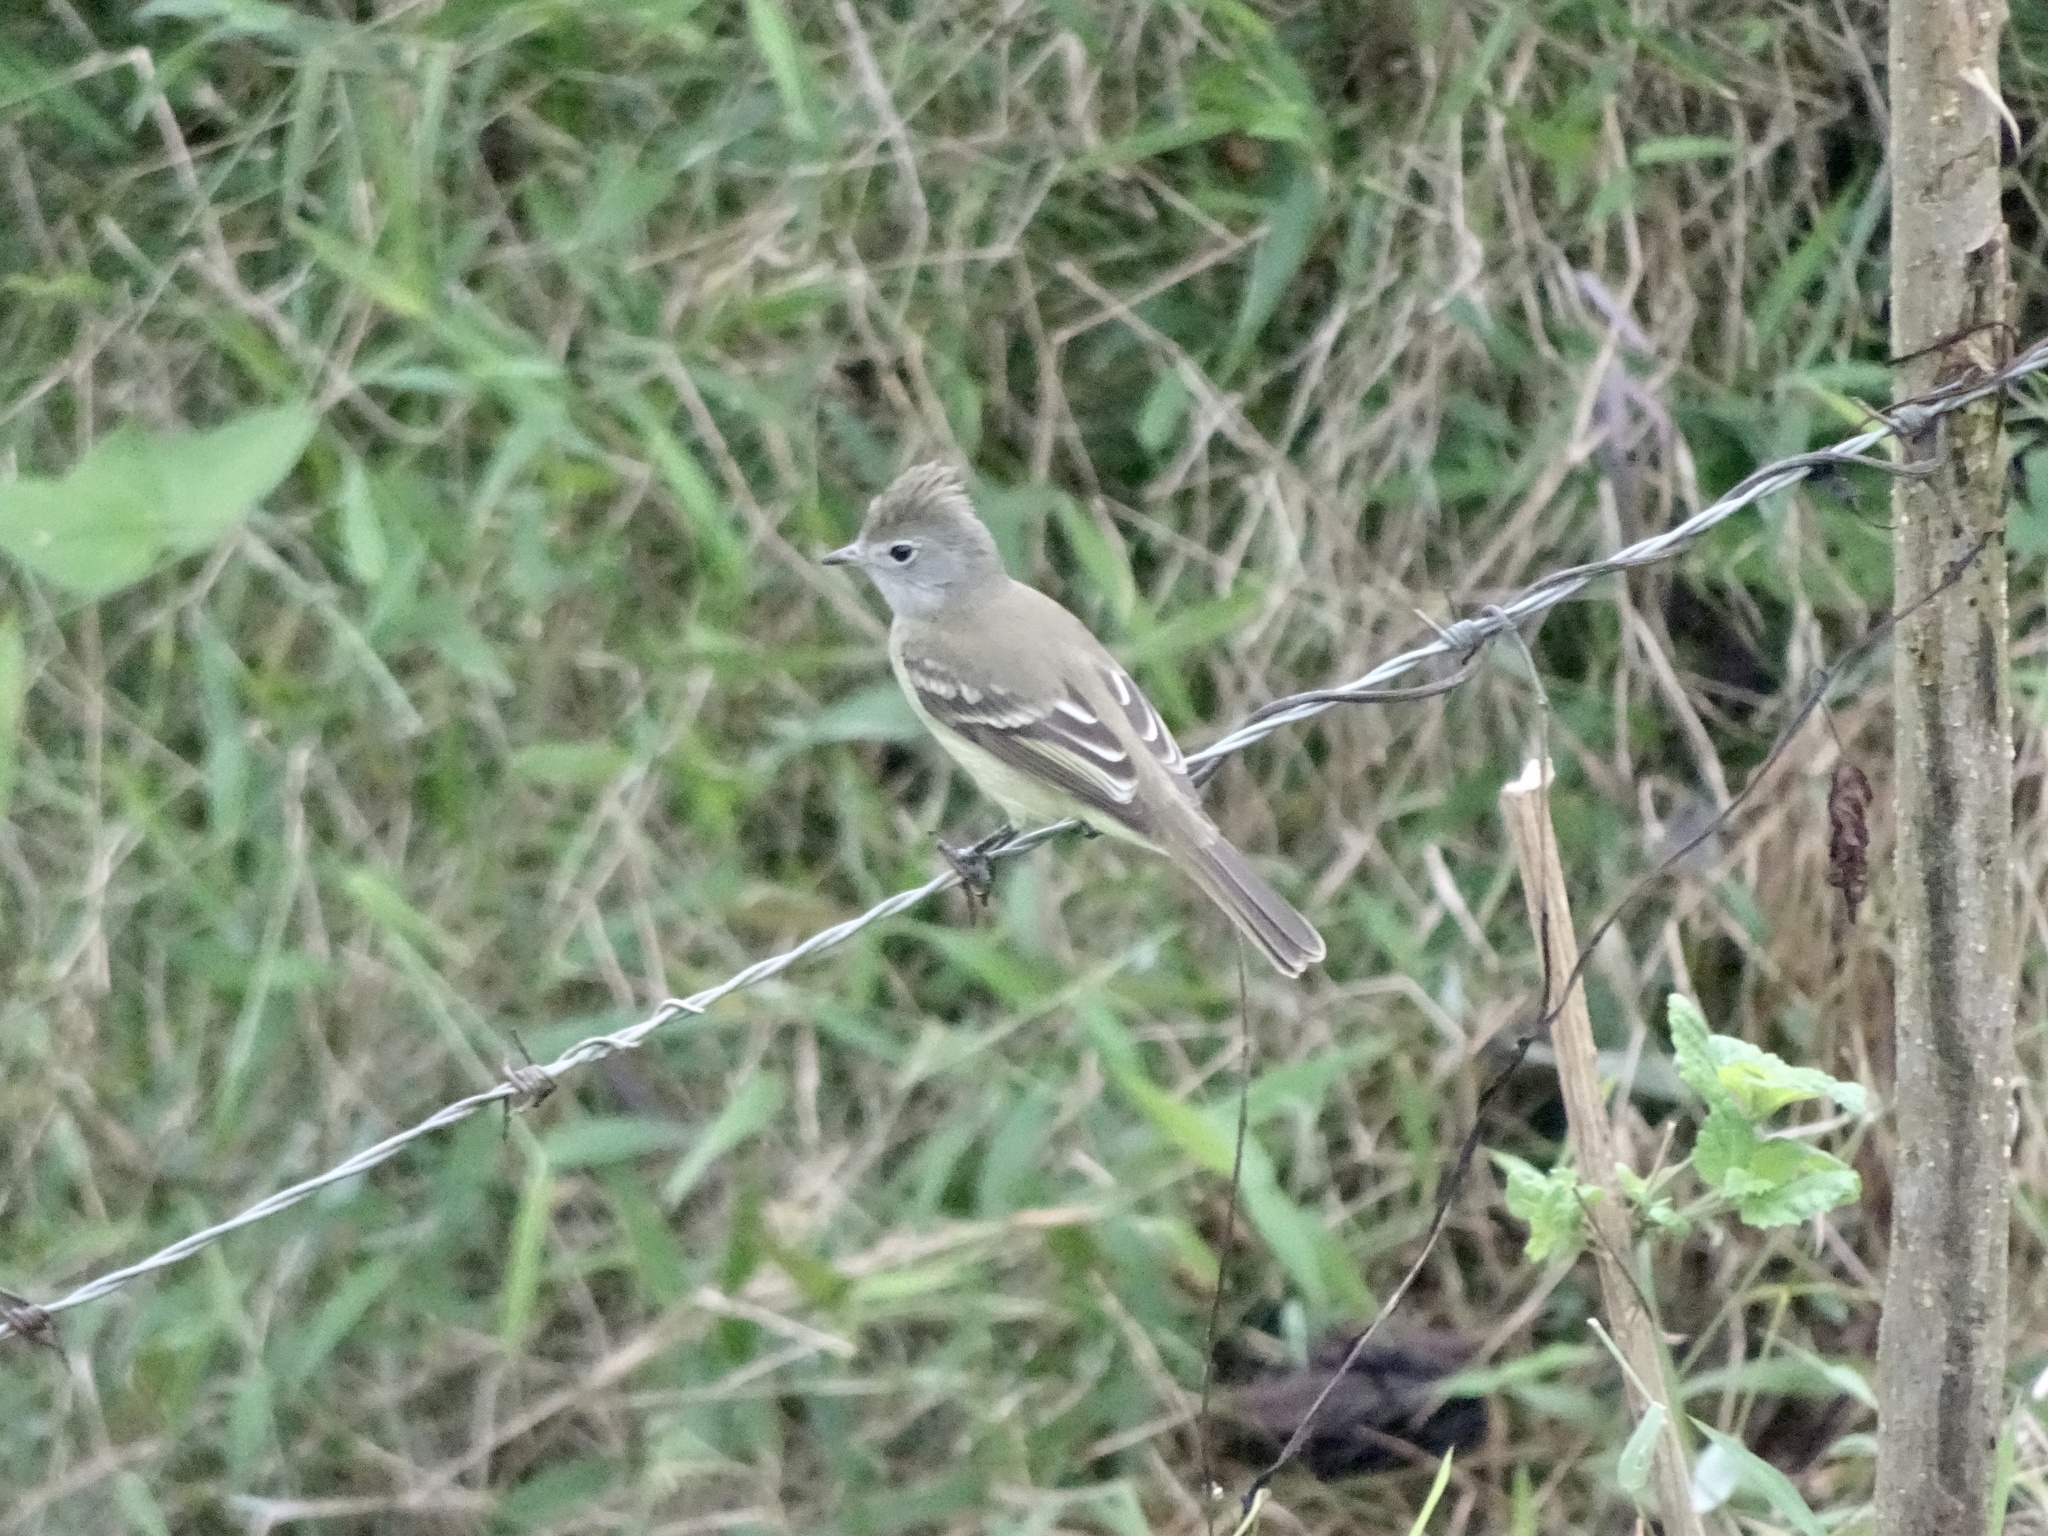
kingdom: Animalia
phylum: Chordata
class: Aves
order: Passeriformes
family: Tyrannidae
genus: Elaenia
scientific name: Elaenia flavogaster
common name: Yellow-bellied elaenia
